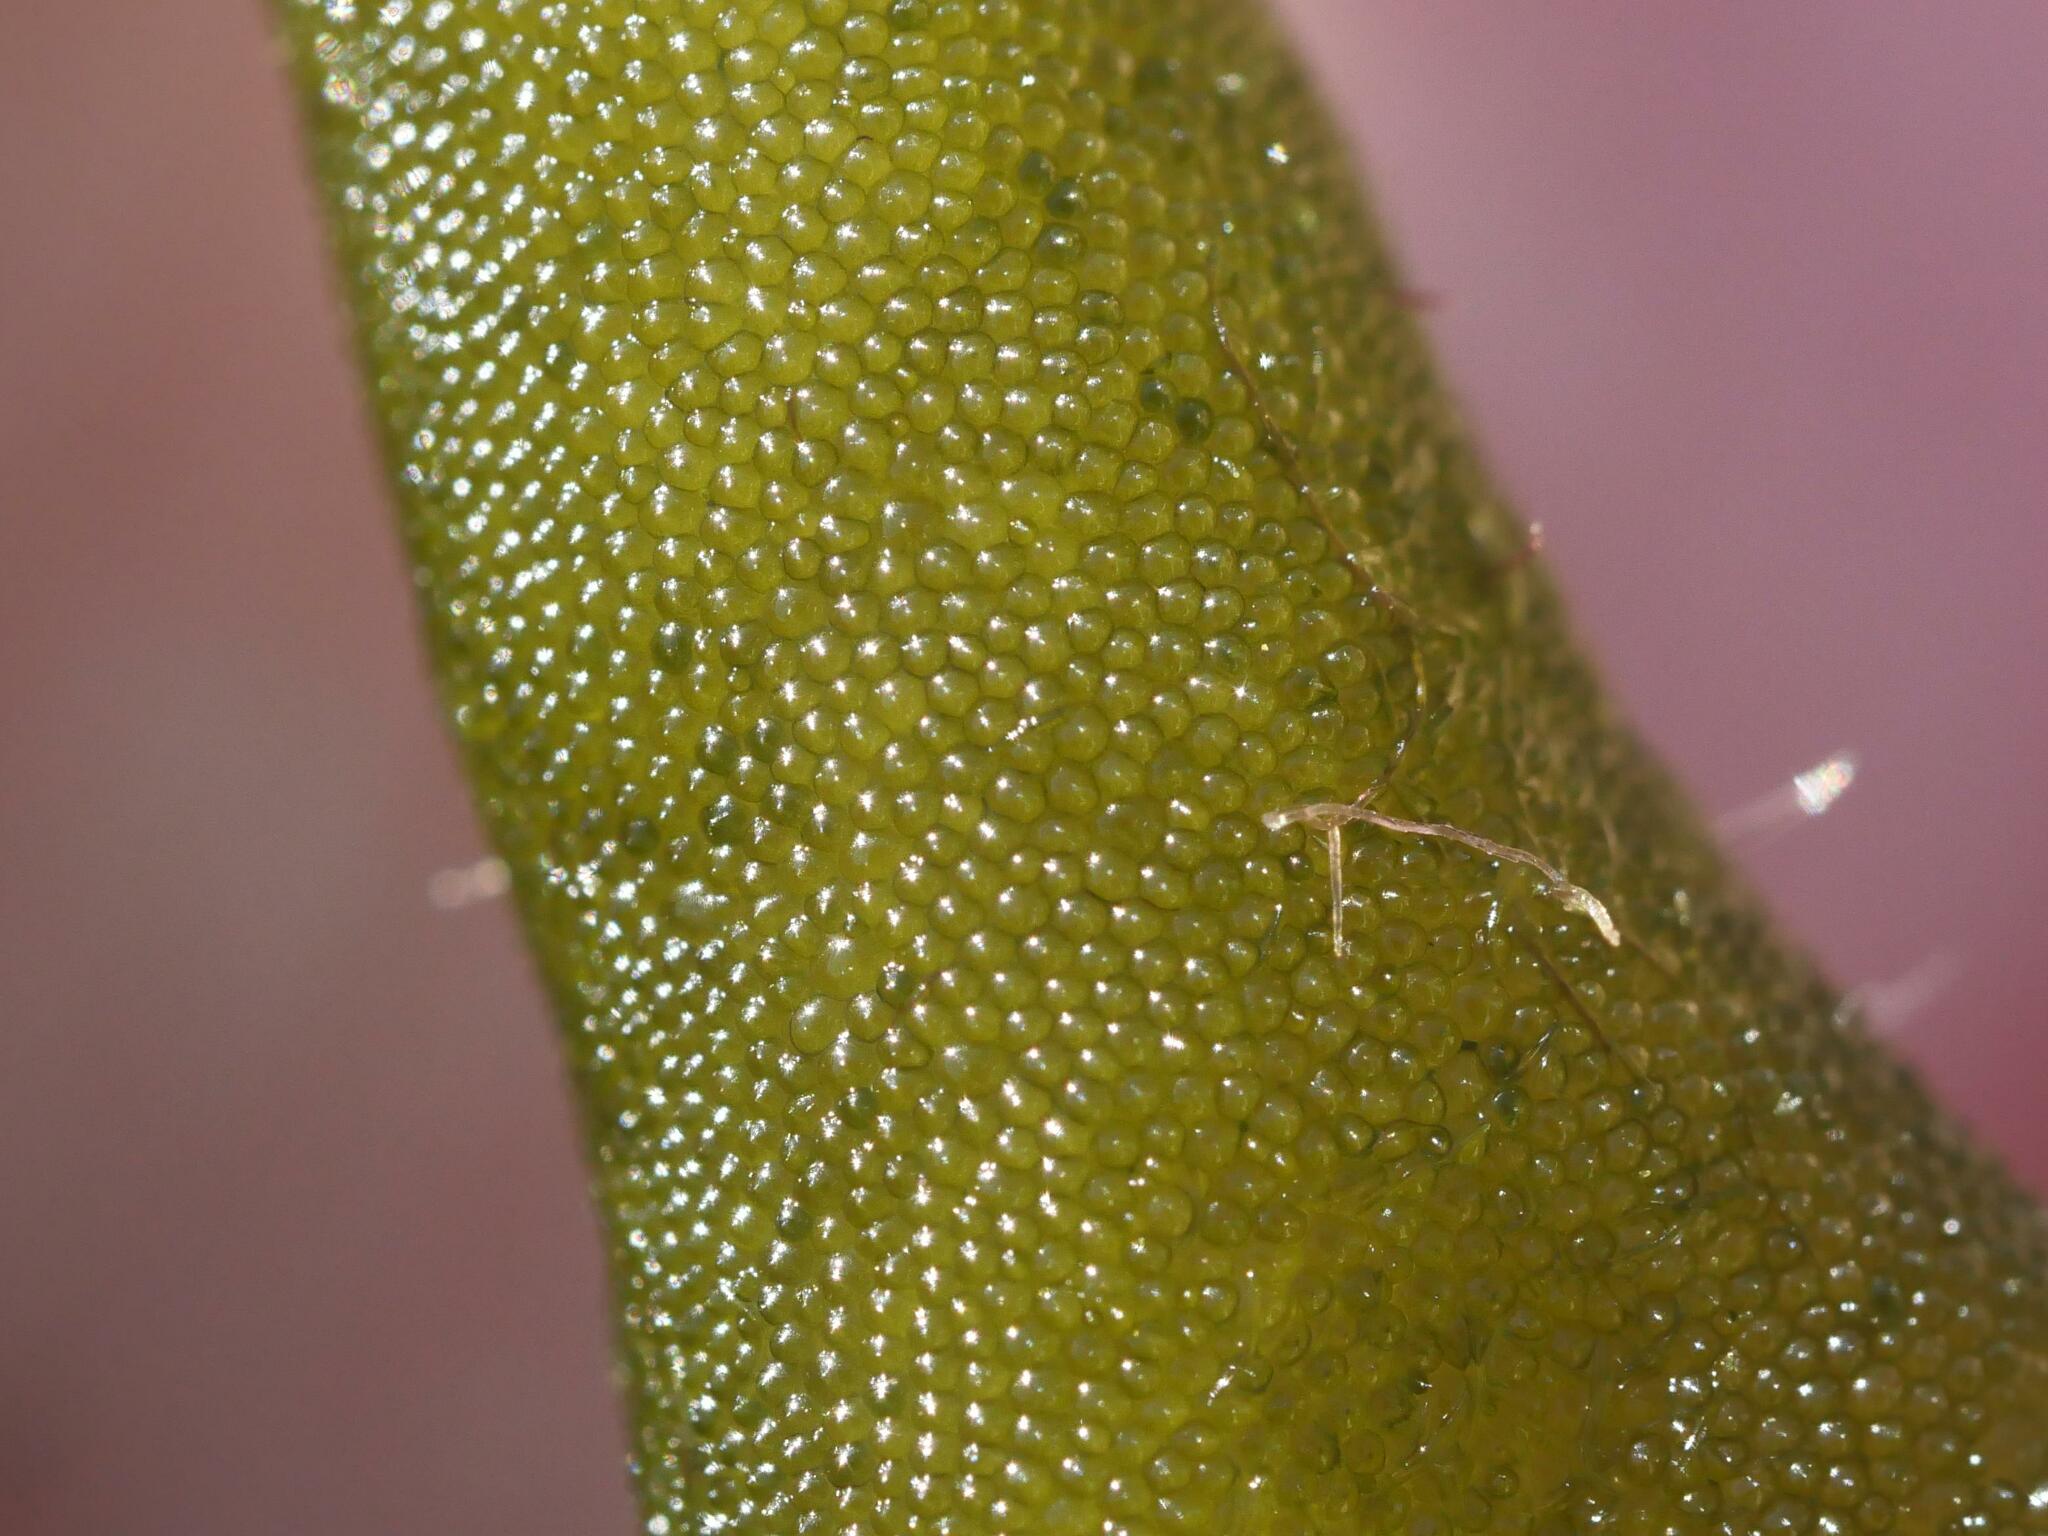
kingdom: Plantae
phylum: Chlorophyta
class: Ulvophyceae
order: Bryopsidales
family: Codiaceae
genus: Codium
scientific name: Codium fragile
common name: Dead man's fingers
